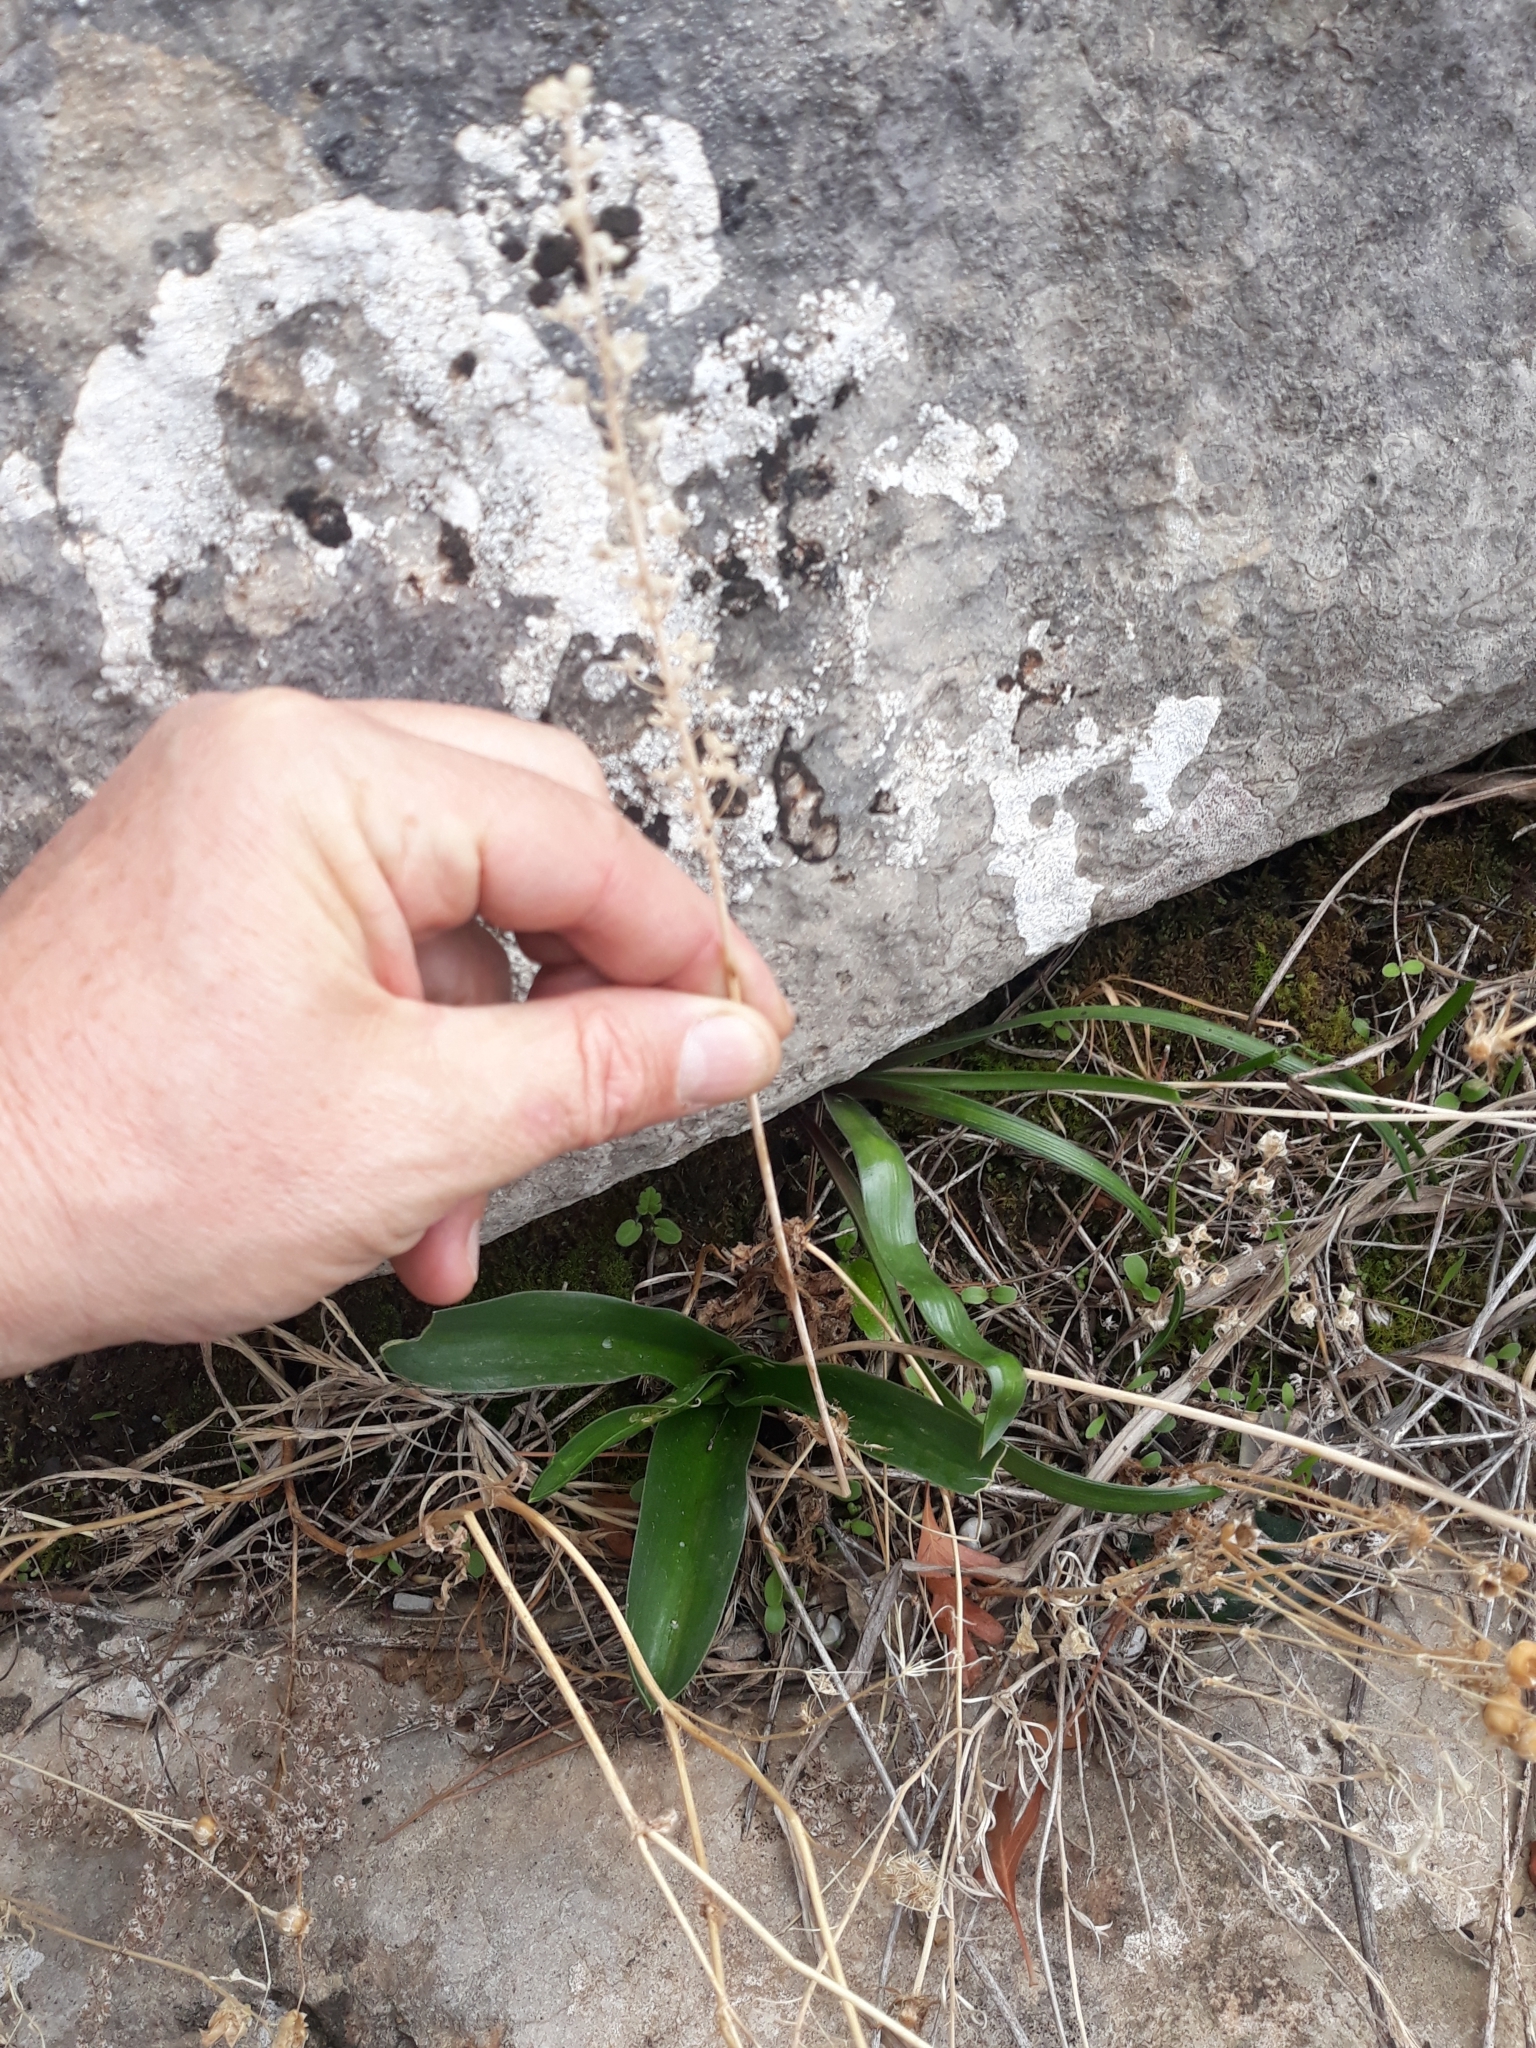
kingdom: Plantae
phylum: Tracheophyta
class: Liliopsida
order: Asparagales
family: Asparagaceae
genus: Prospero
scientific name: Prospero obtusifolium
